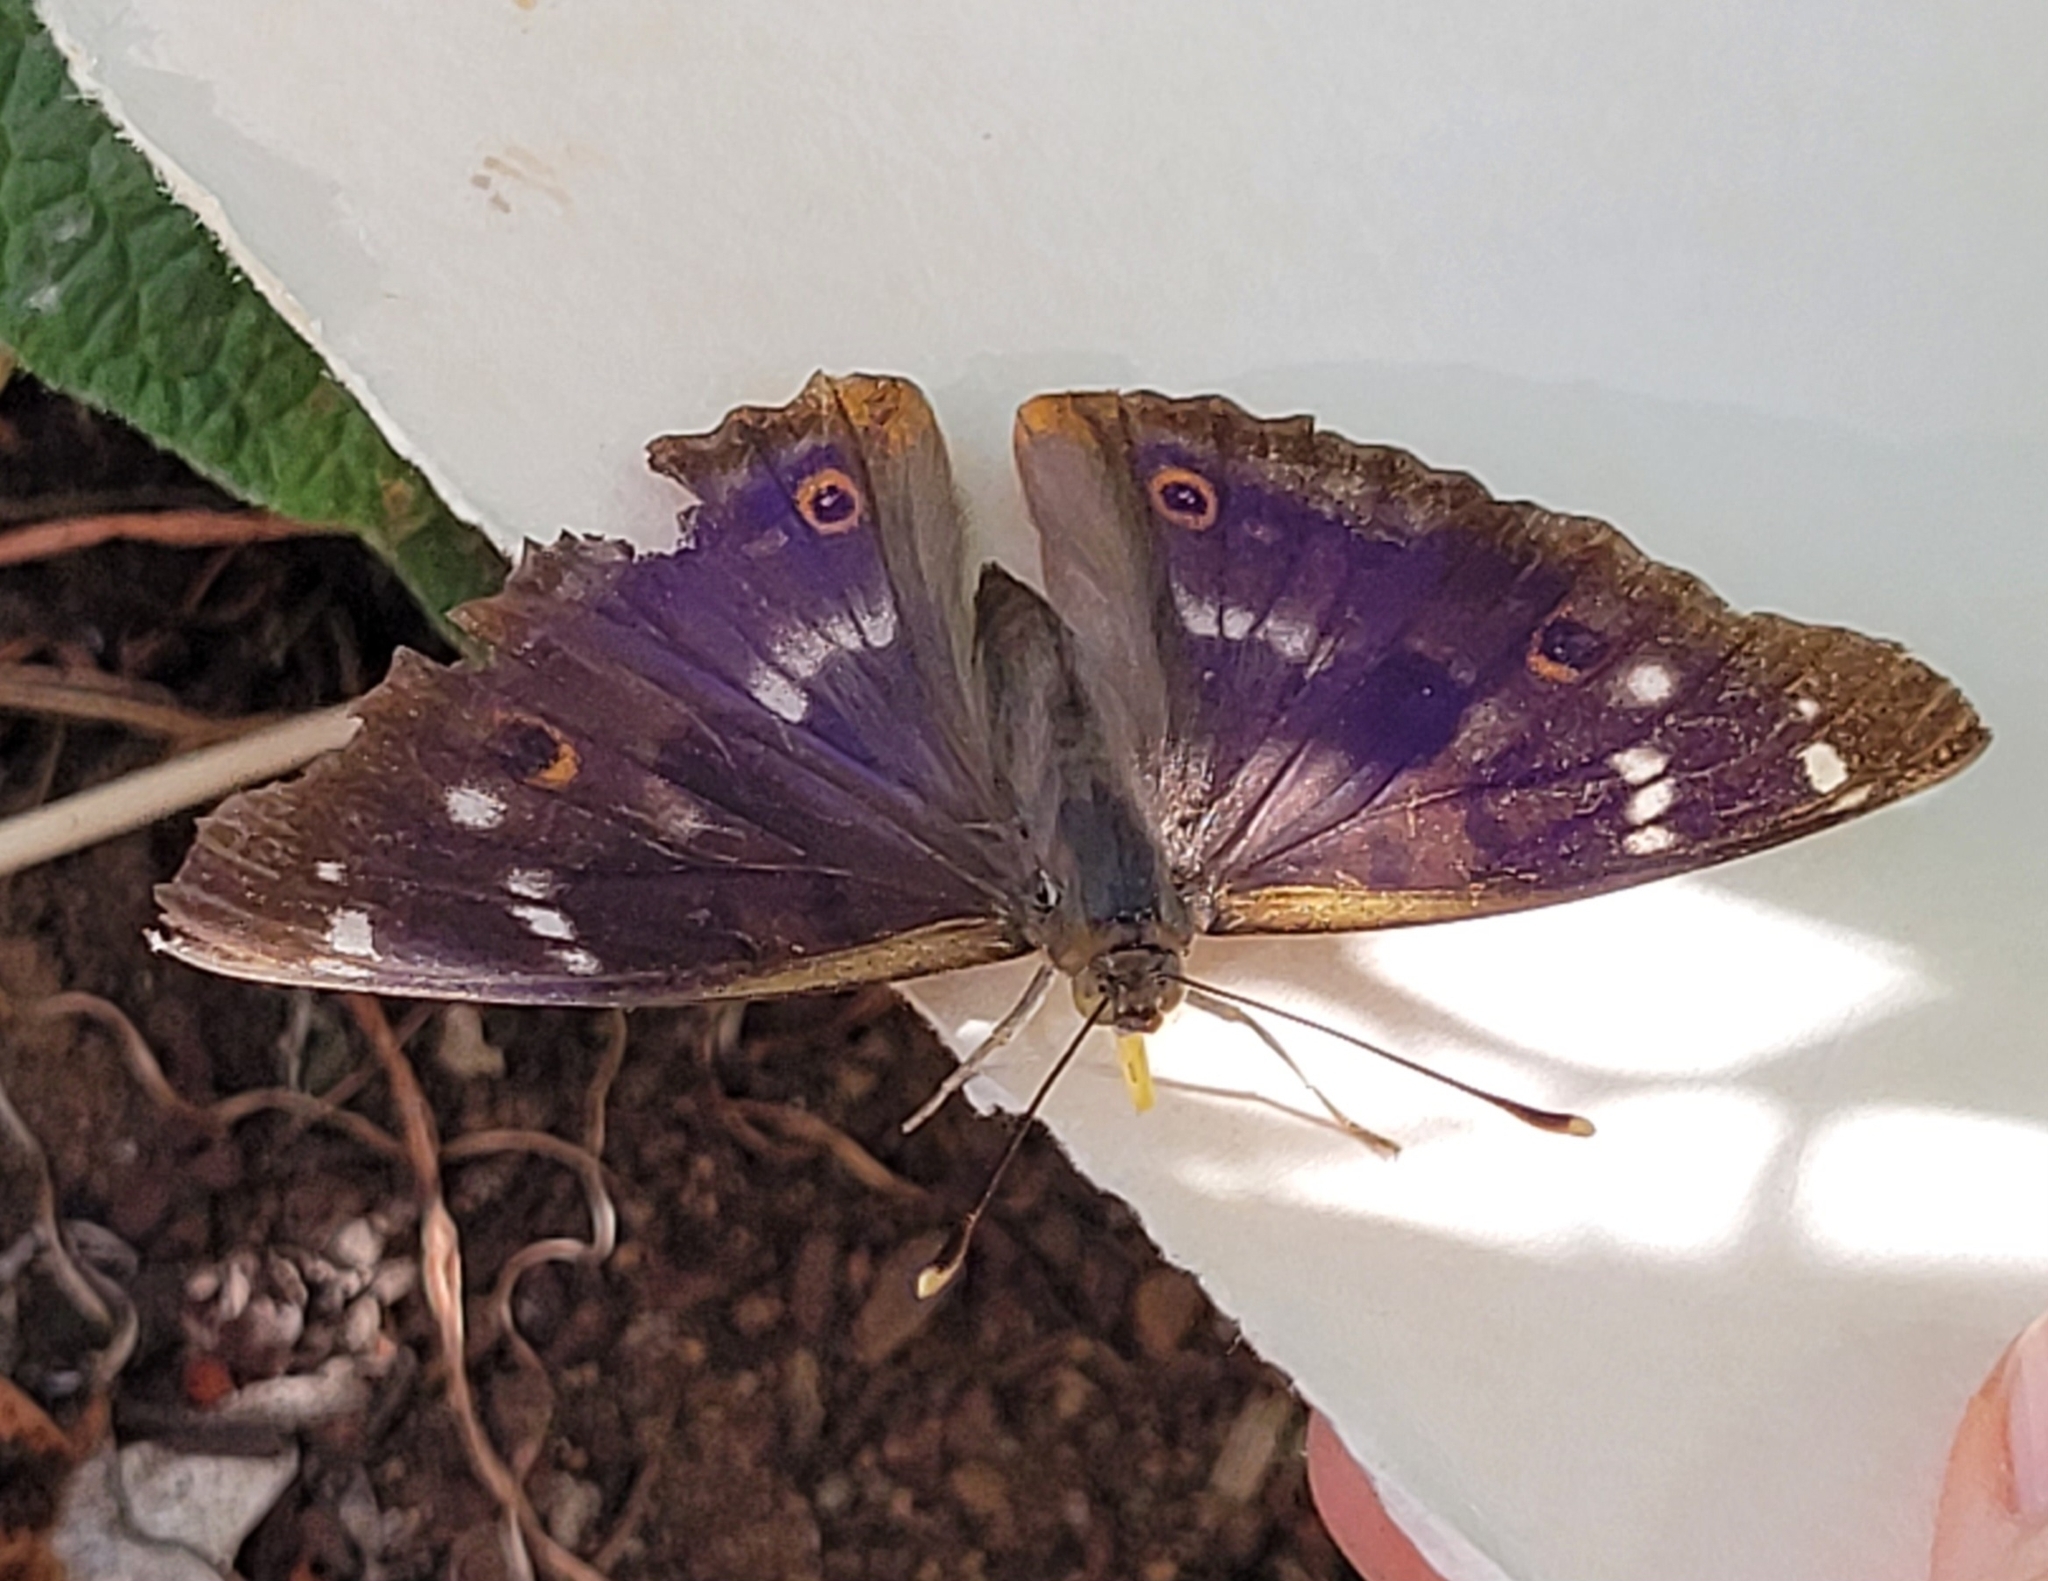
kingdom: Animalia
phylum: Arthropoda
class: Insecta
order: Lepidoptera
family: Nymphalidae
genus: Apatura
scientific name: Apatura ilia
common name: Lesser purple emperor
